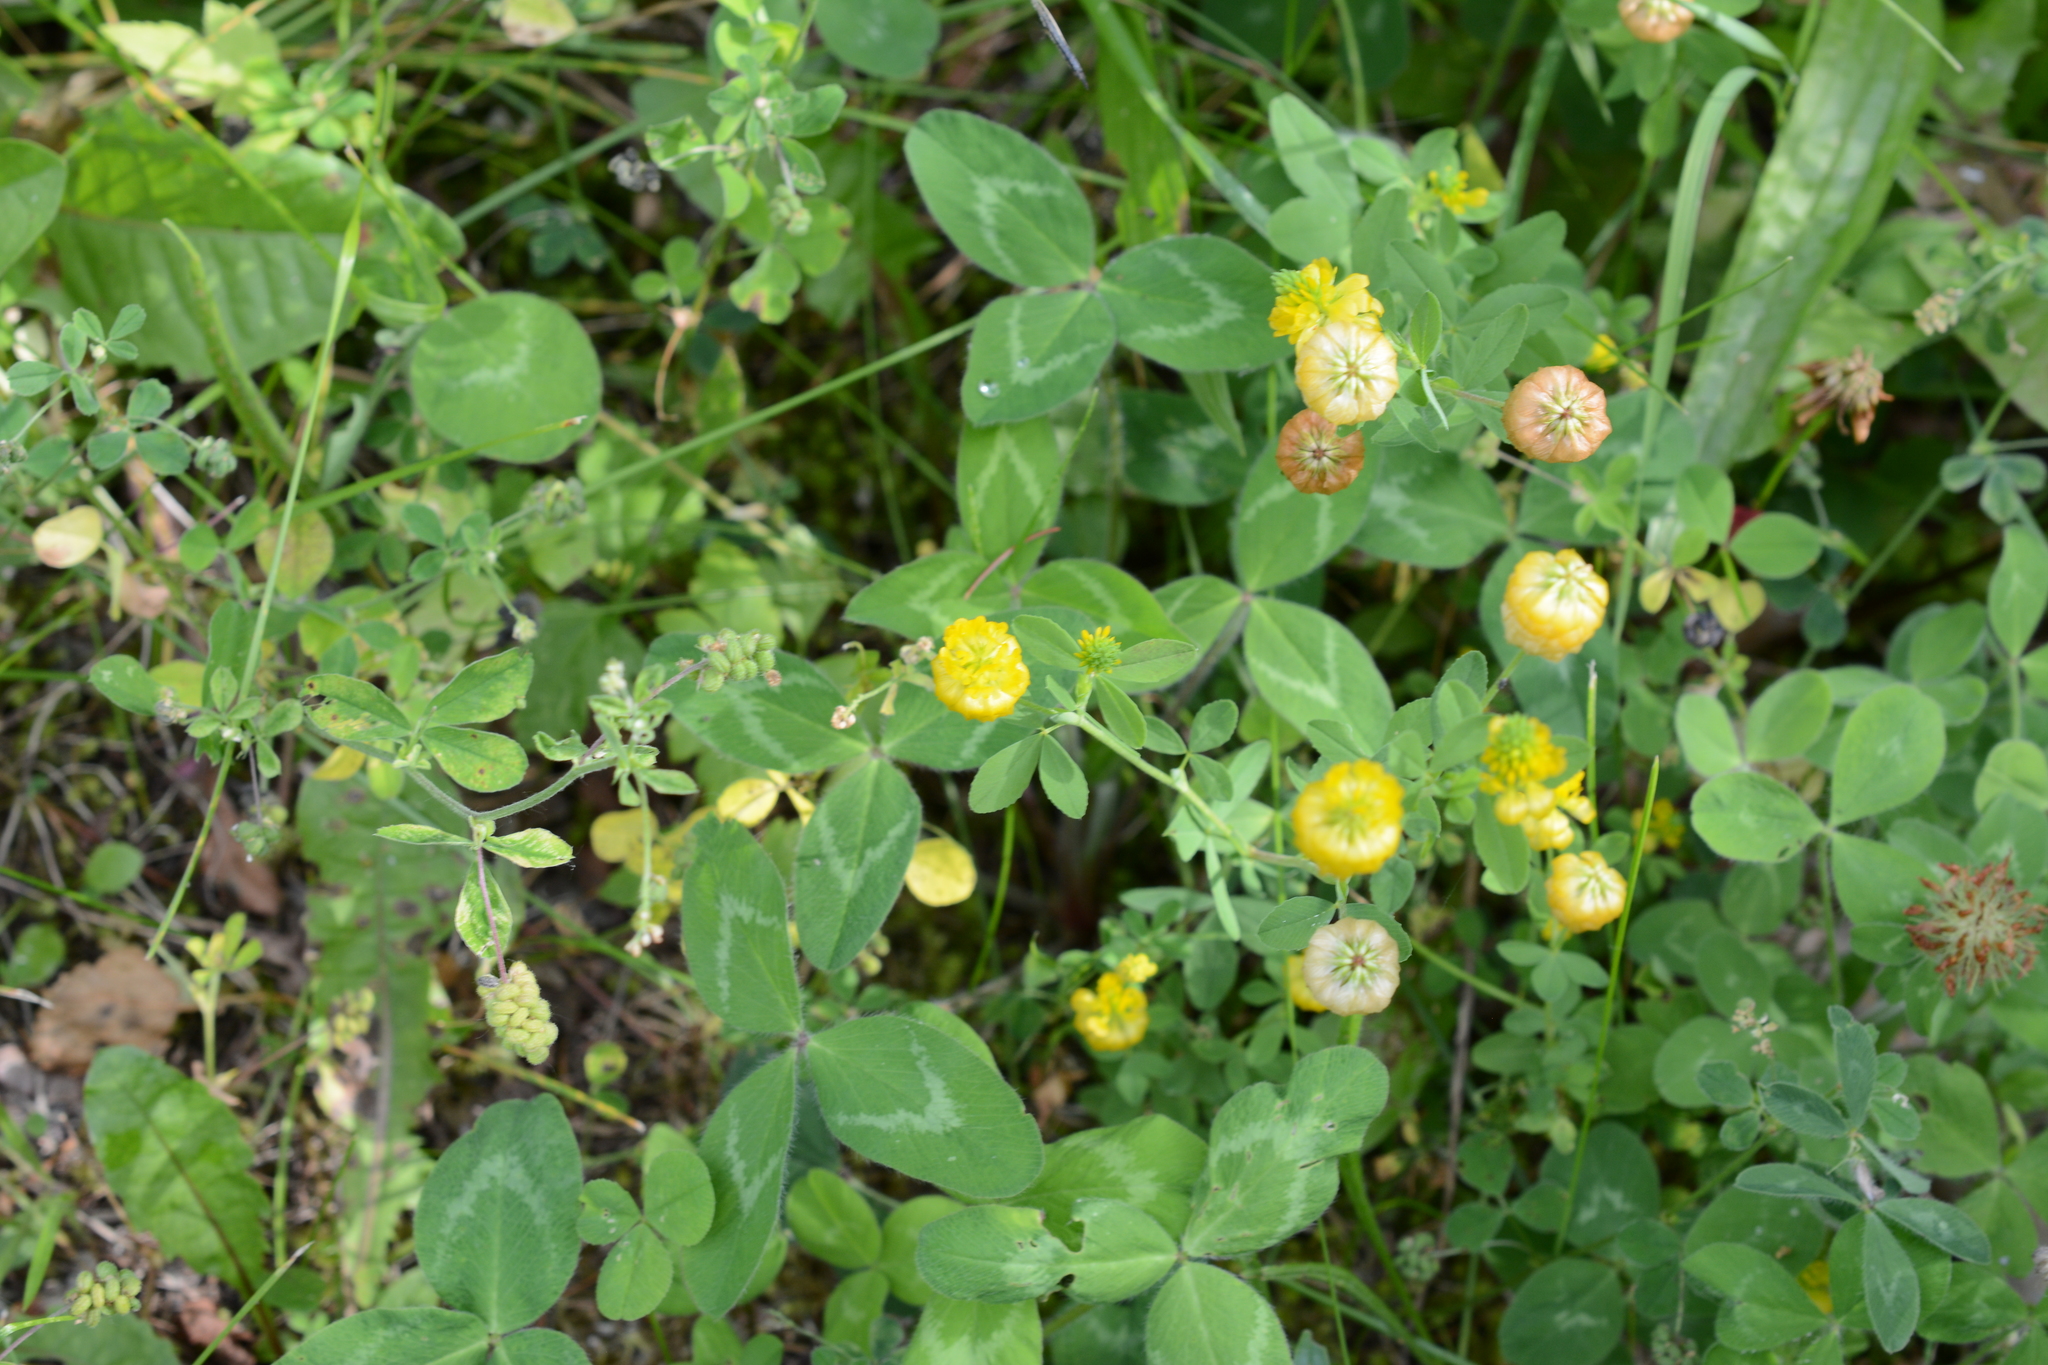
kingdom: Plantae
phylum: Tracheophyta
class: Magnoliopsida
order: Fabales
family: Fabaceae
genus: Trifolium
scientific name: Trifolium aureum
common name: Golden clover
